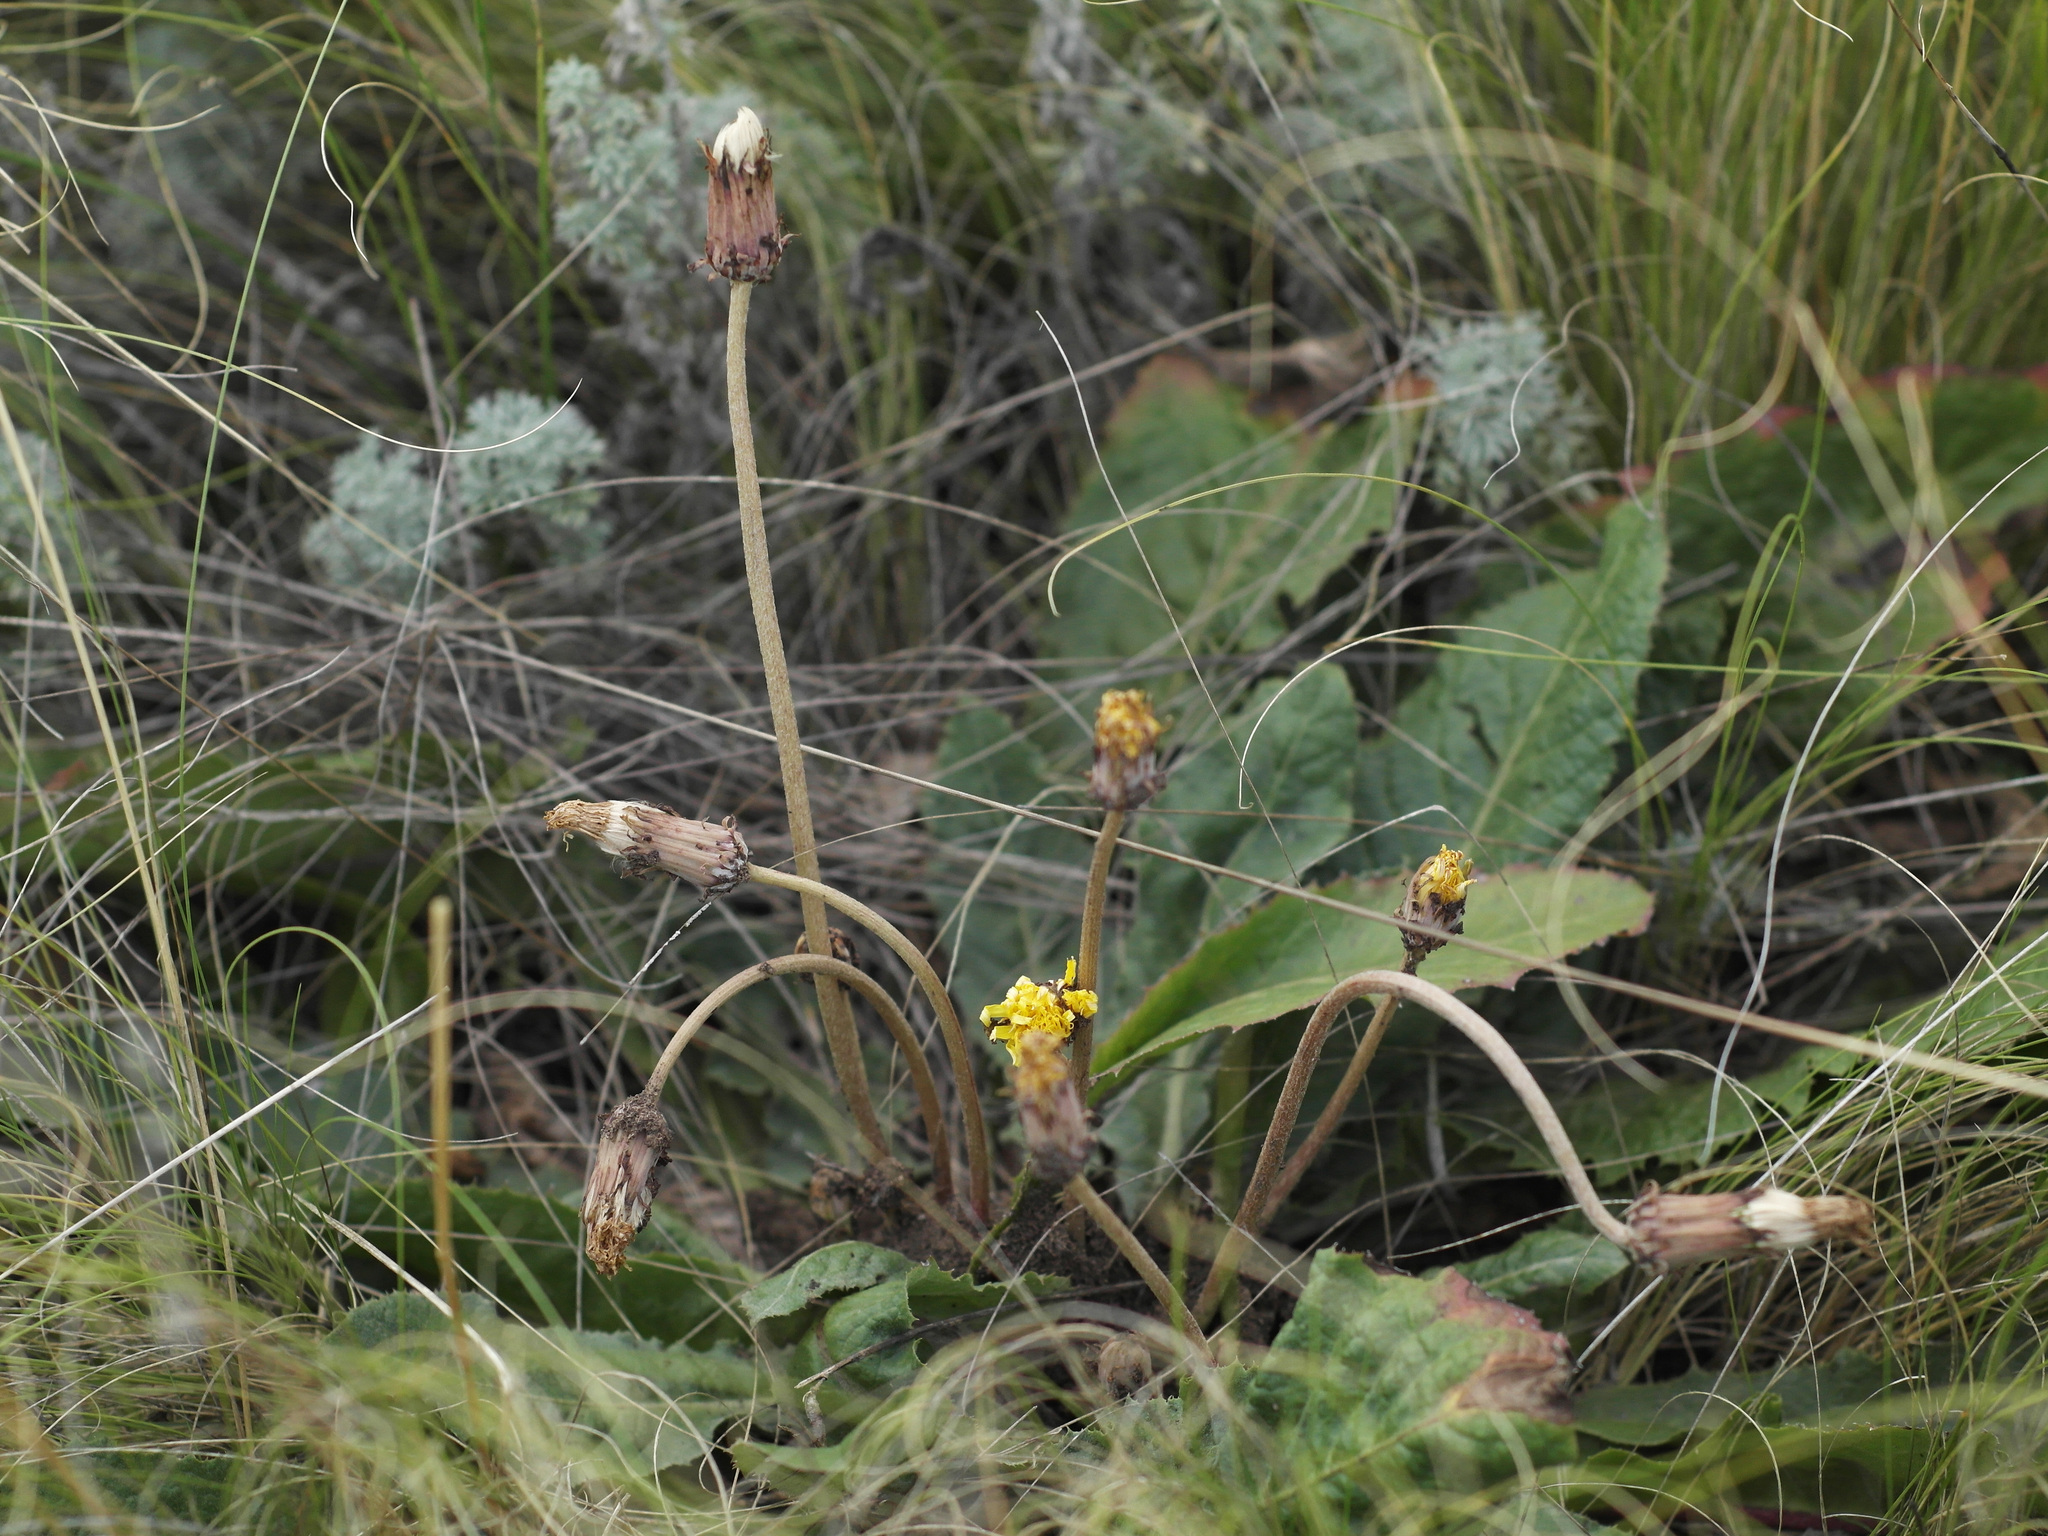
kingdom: Plantae
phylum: Tracheophyta
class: Magnoliopsida
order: Asterales
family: Asteraceae
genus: Taraxacum
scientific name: Taraxacum serotinum
